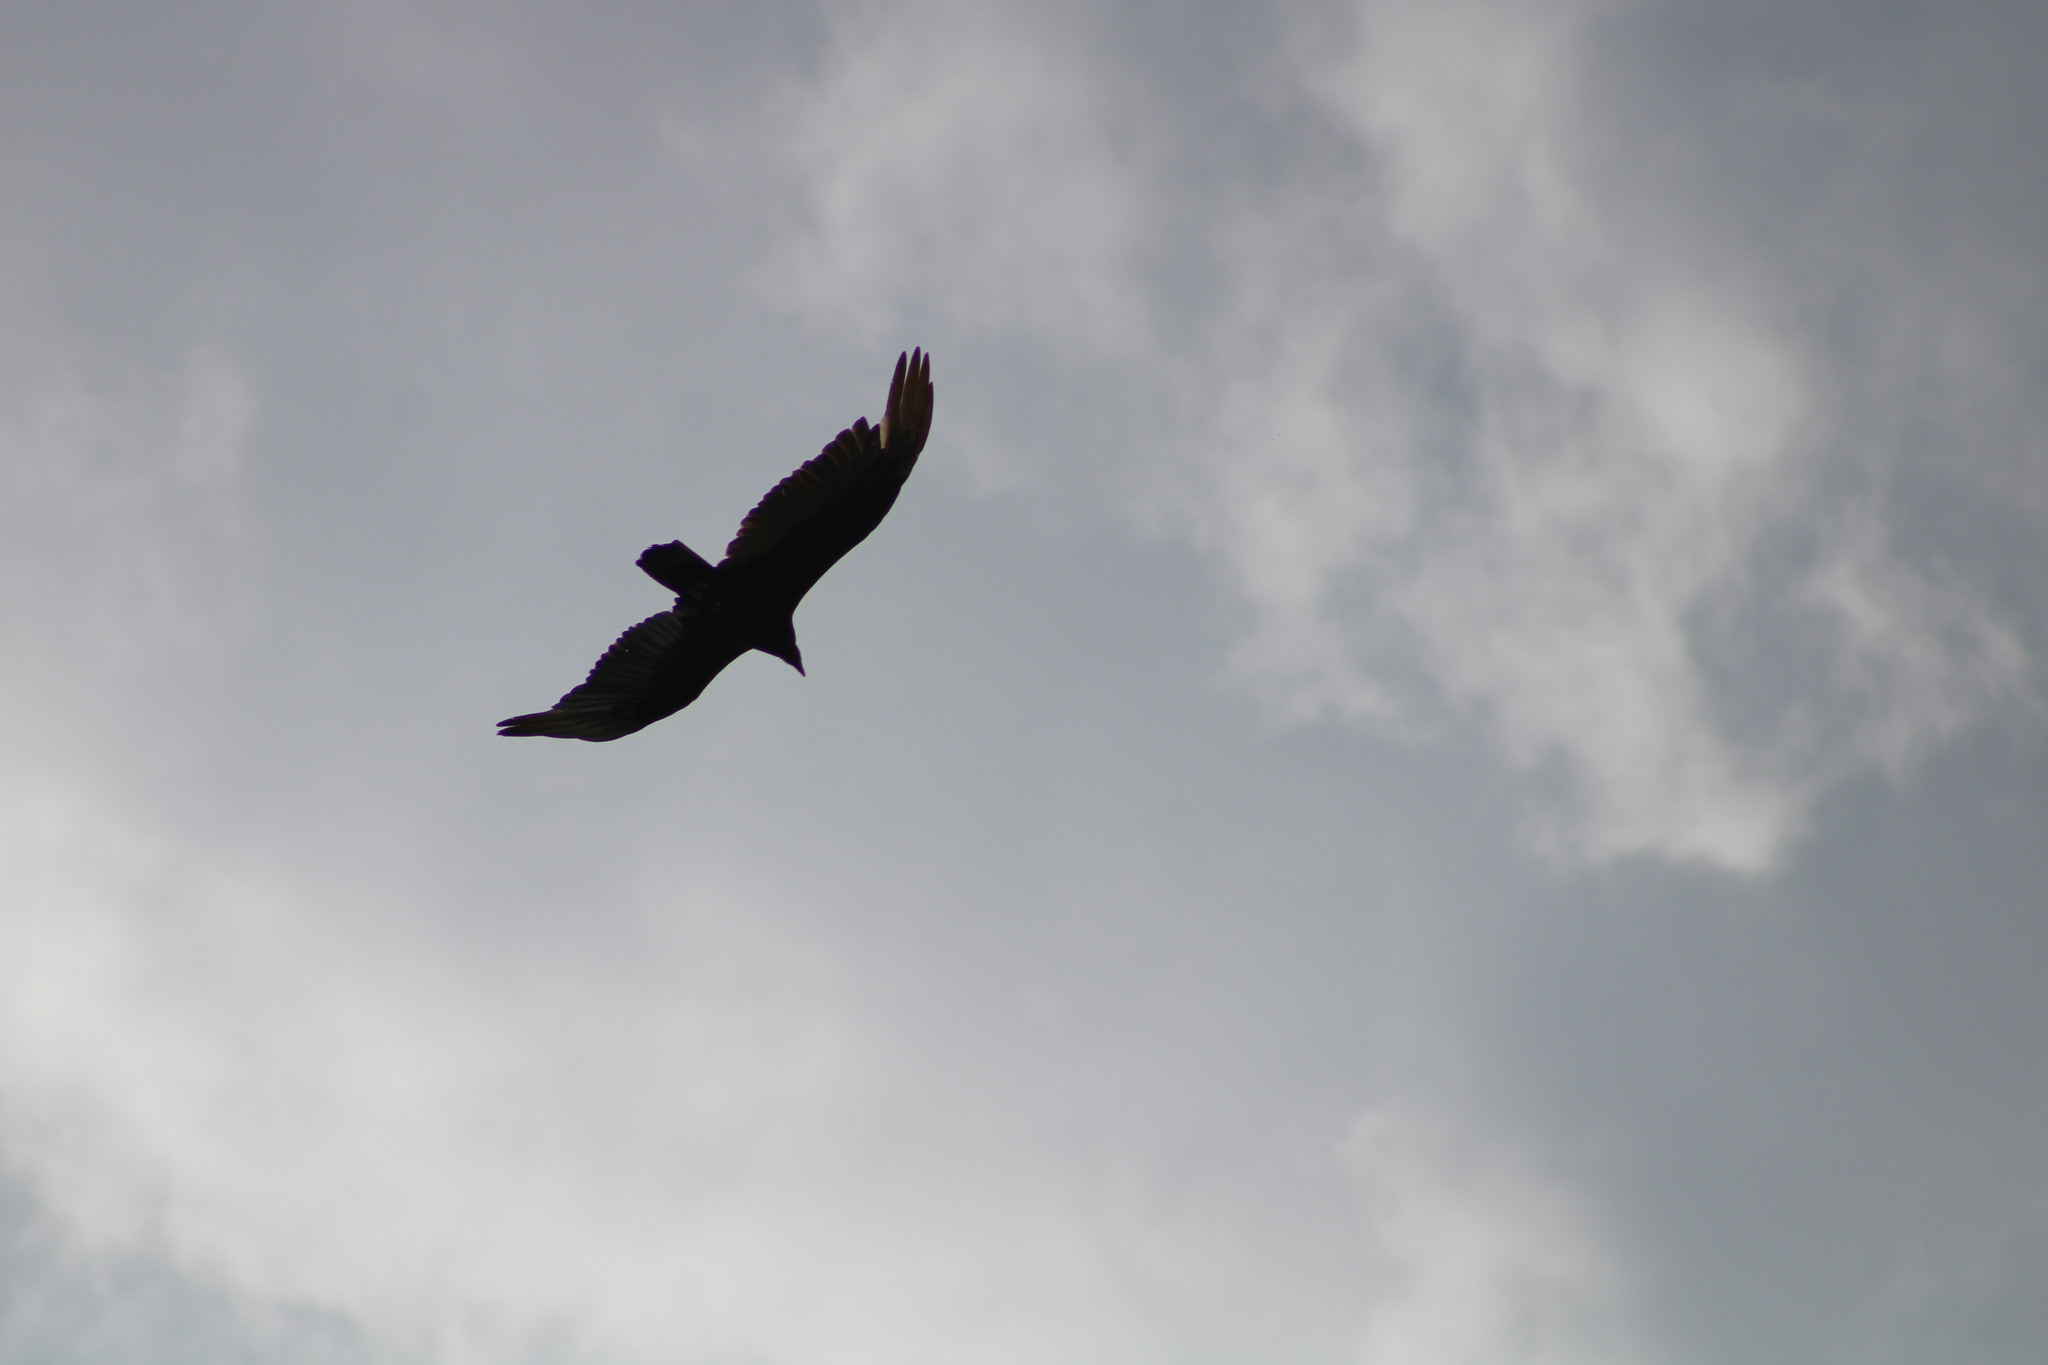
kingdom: Animalia
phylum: Chordata
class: Aves
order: Accipitriformes
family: Cathartidae
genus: Cathartes
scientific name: Cathartes aura
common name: Turkey vulture
